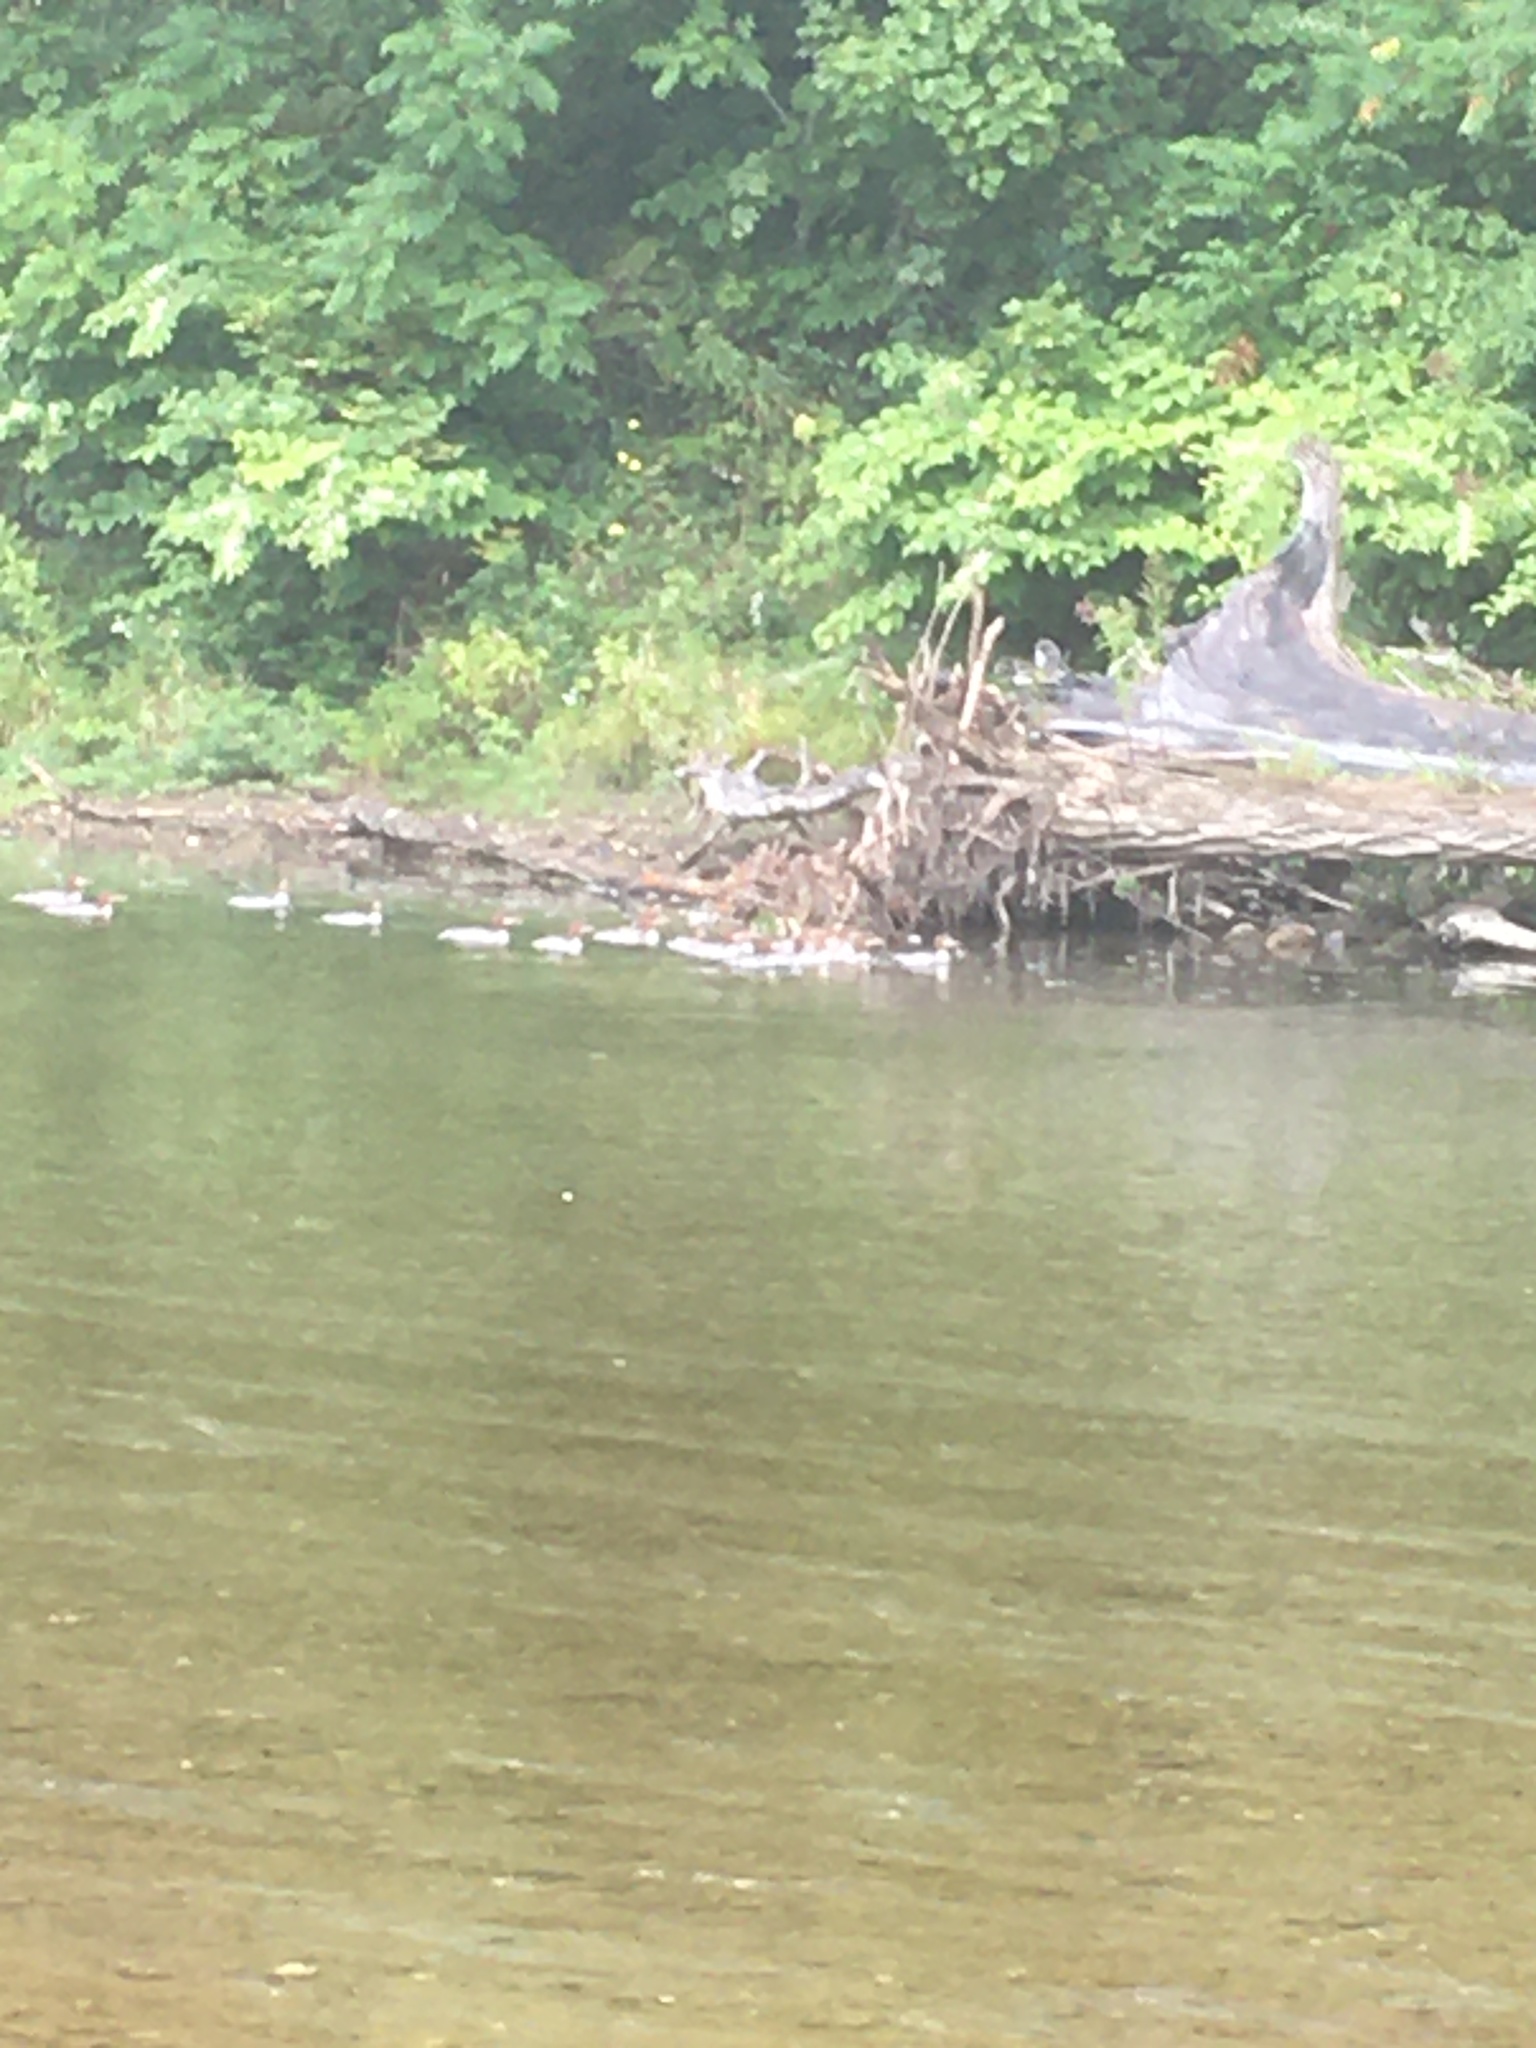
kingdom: Animalia
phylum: Chordata
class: Aves
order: Anseriformes
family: Anatidae
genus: Mergus
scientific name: Mergus merganser
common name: Common merganser
